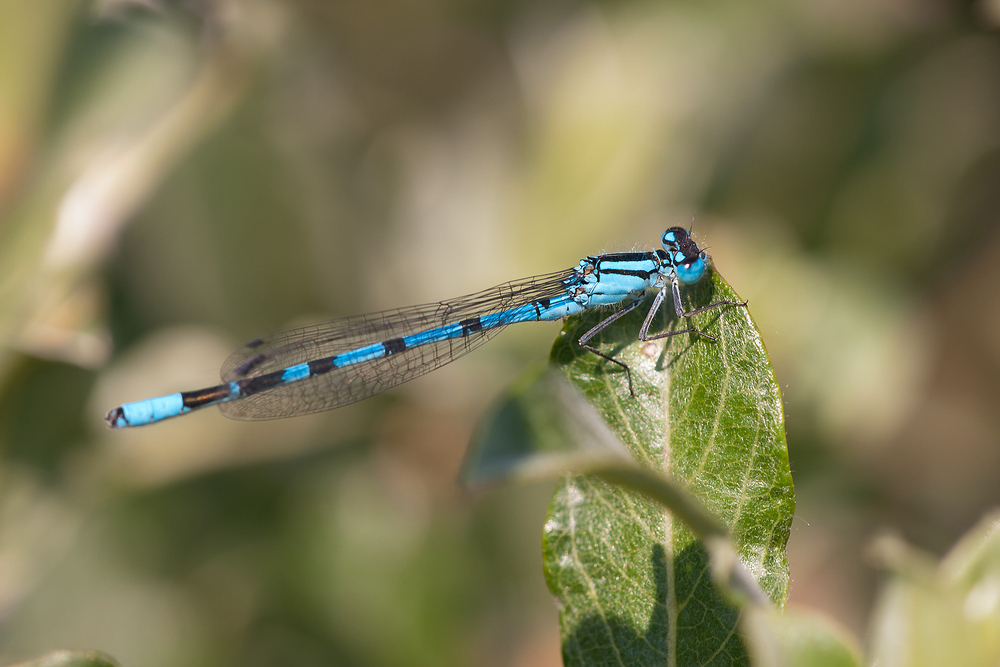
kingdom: Animalia
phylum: Arthropoda
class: Insecta
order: Odonata
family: Coenagrionidae
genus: Enallagma
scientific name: Enallagma cyathigerum
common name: Common blue damselfly
